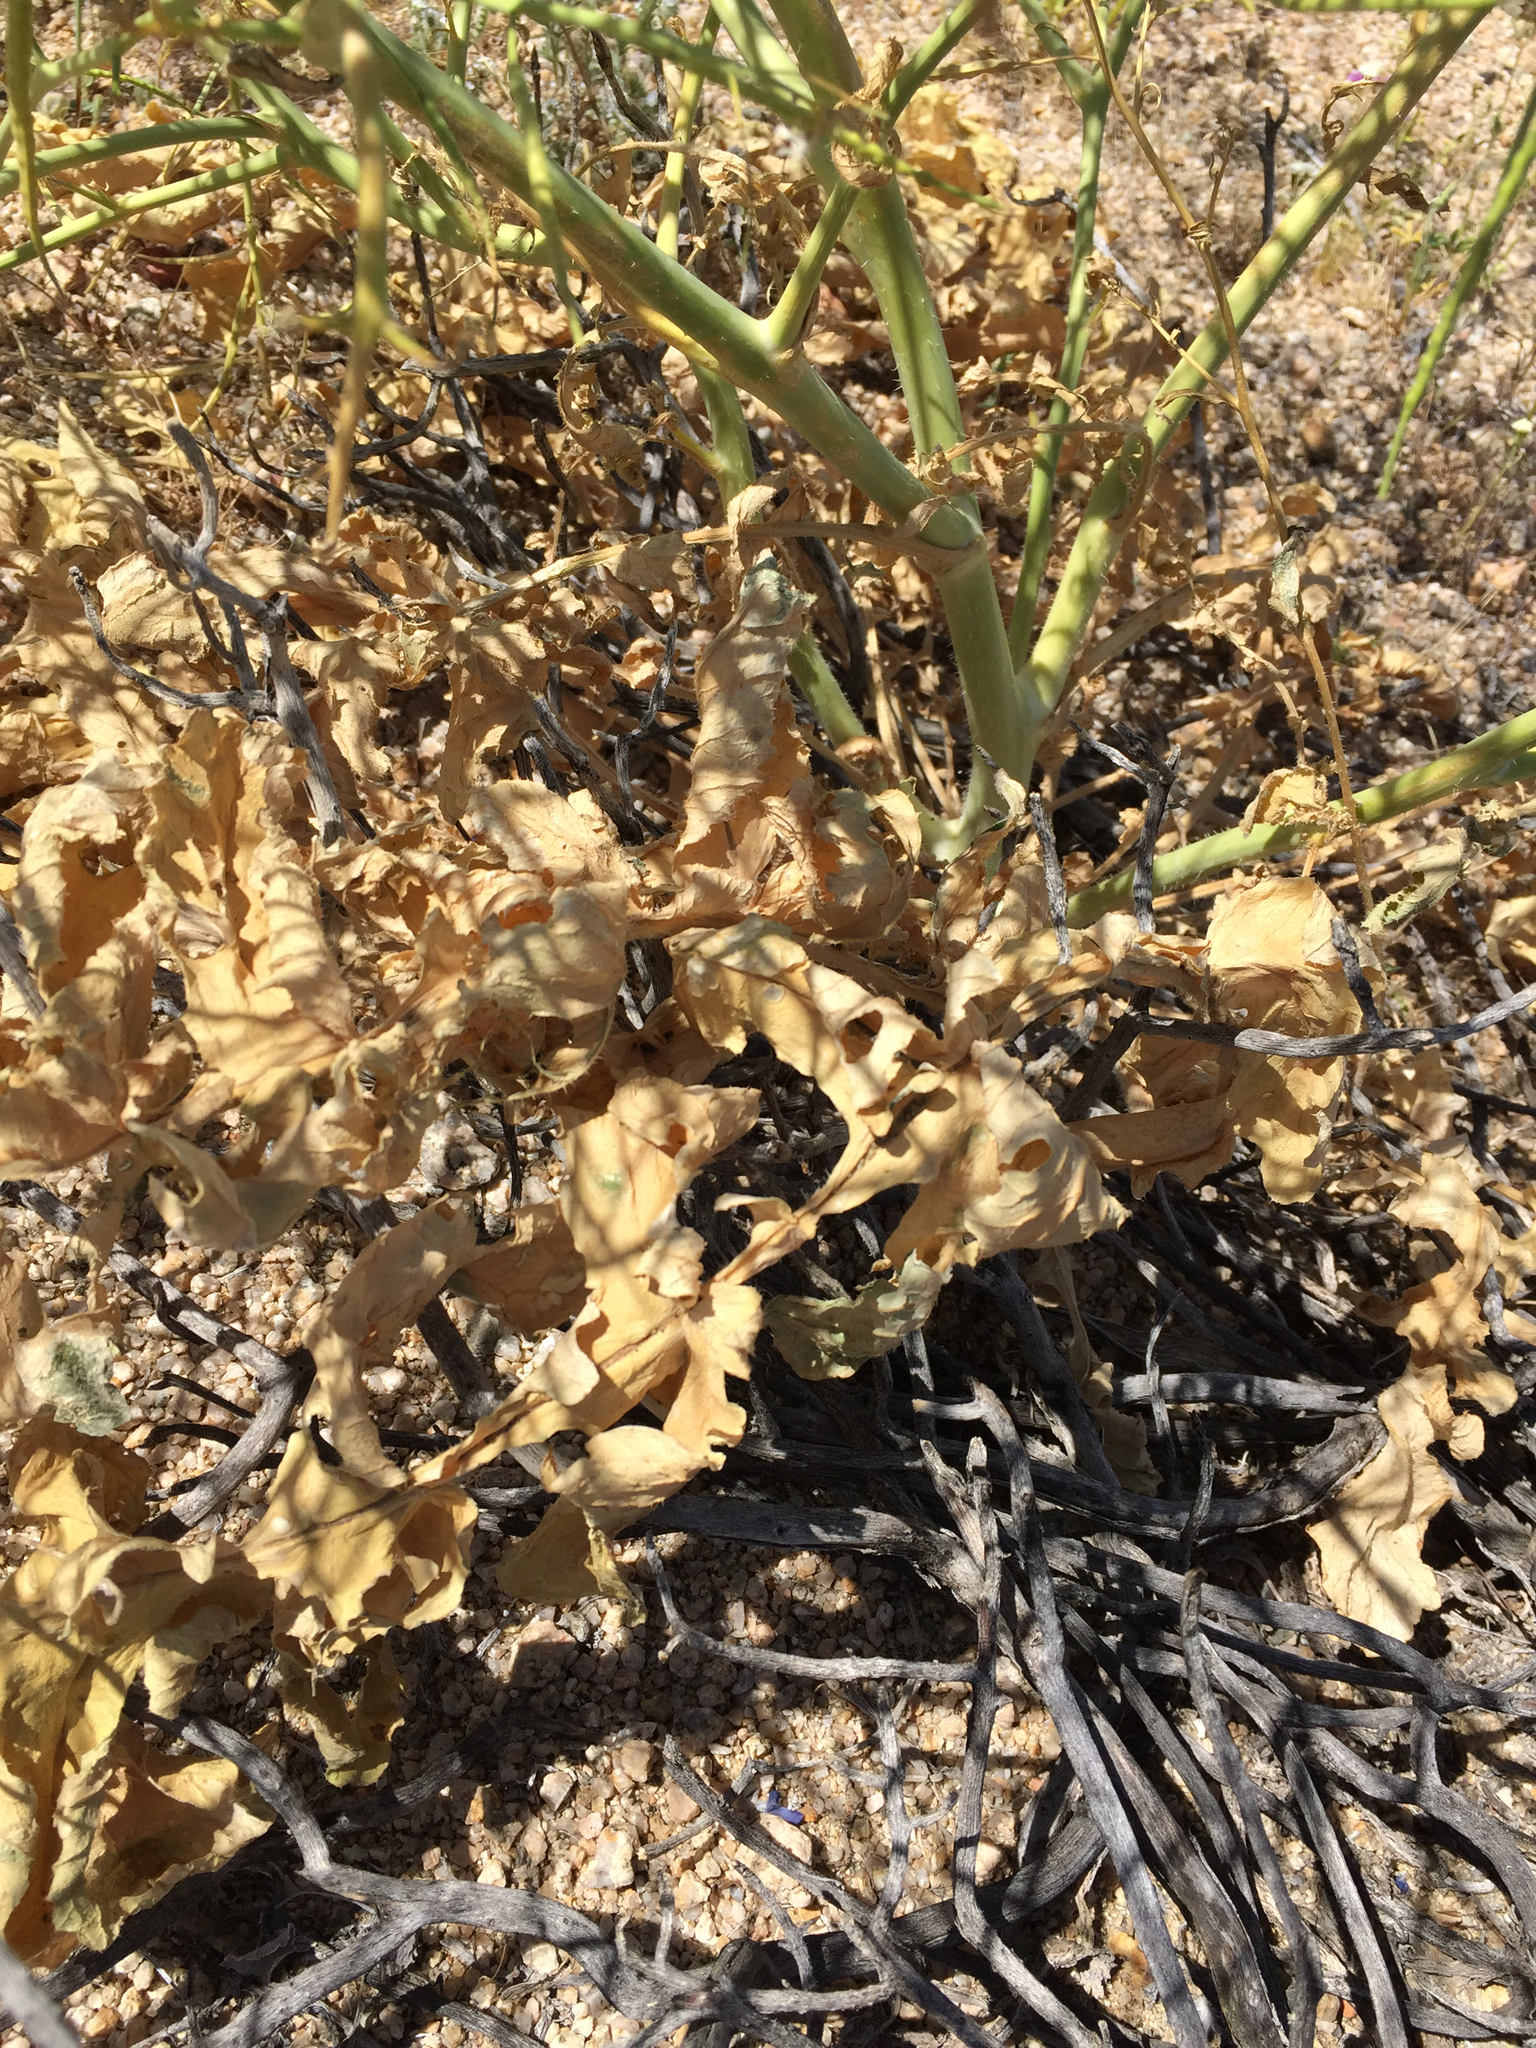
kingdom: Plantae
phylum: Tracheophyta
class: Magnoliopsida
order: Brassicales
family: Brassicaceae
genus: Brassica
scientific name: Brassica tournefortii
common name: Pale cabbage
